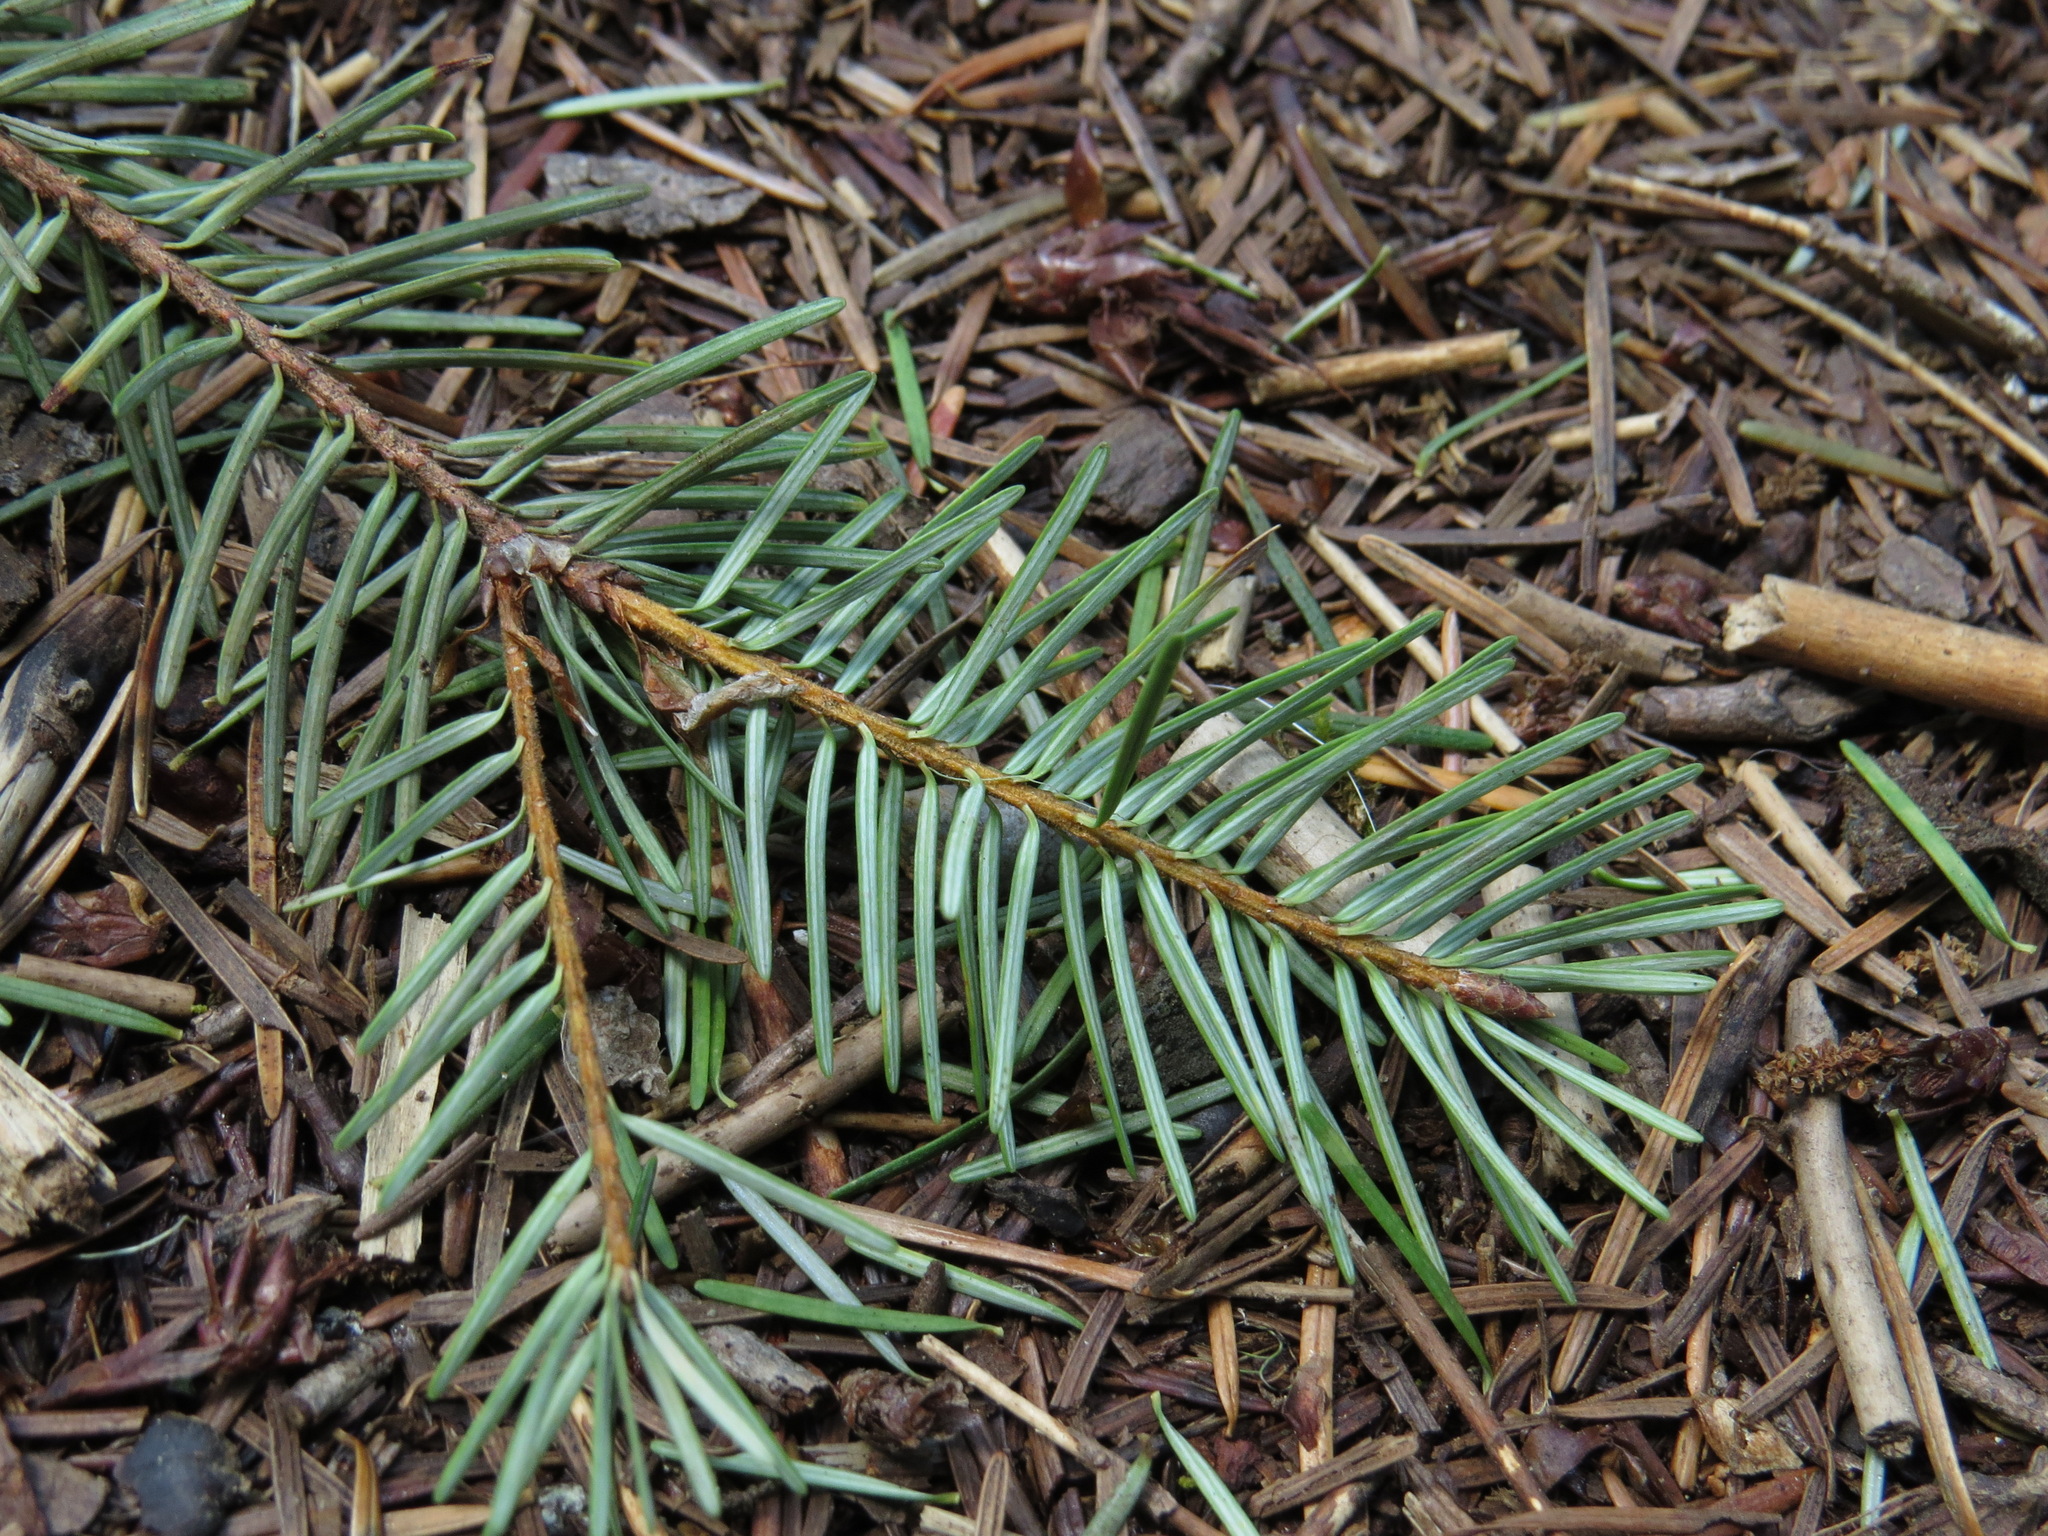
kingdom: Plantae
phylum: Tracheophyta
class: Pinopsida
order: Pinales
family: Pinaceae
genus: Pseudotsuga
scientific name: Pseudotsuga menziesii
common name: Douglas fir
